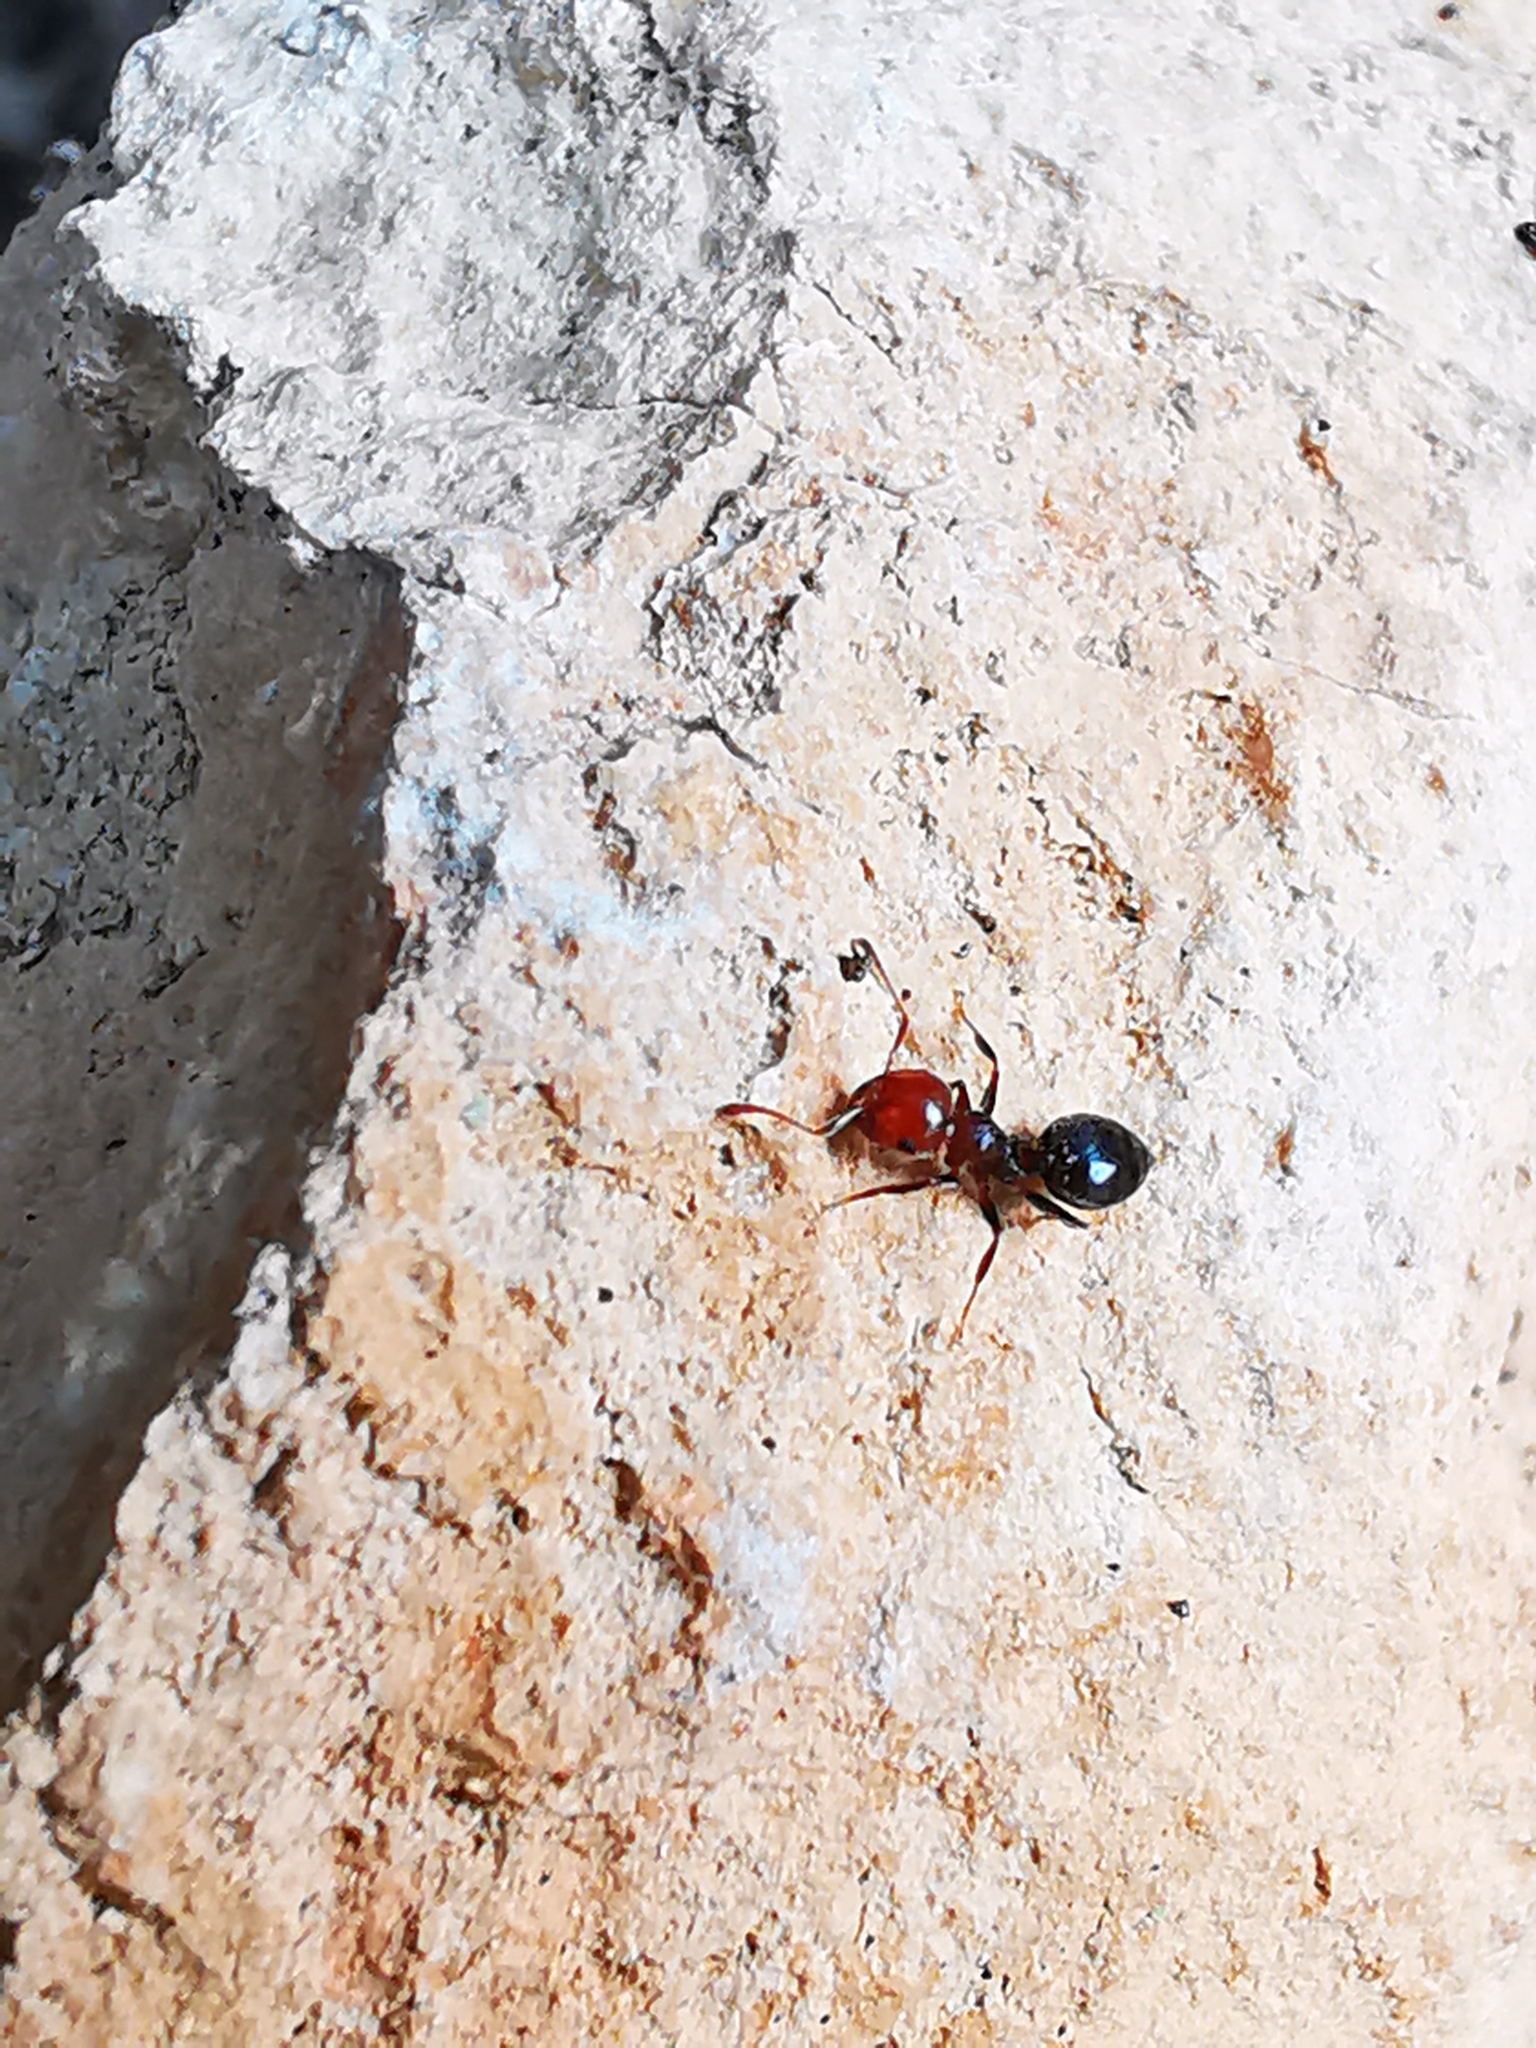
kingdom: Animalia
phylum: Arthropoda
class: Insecta
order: Hymenoptera
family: Formicidae
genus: Crematogaster
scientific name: Crematogaster scutellaris
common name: Fourmi du liège
